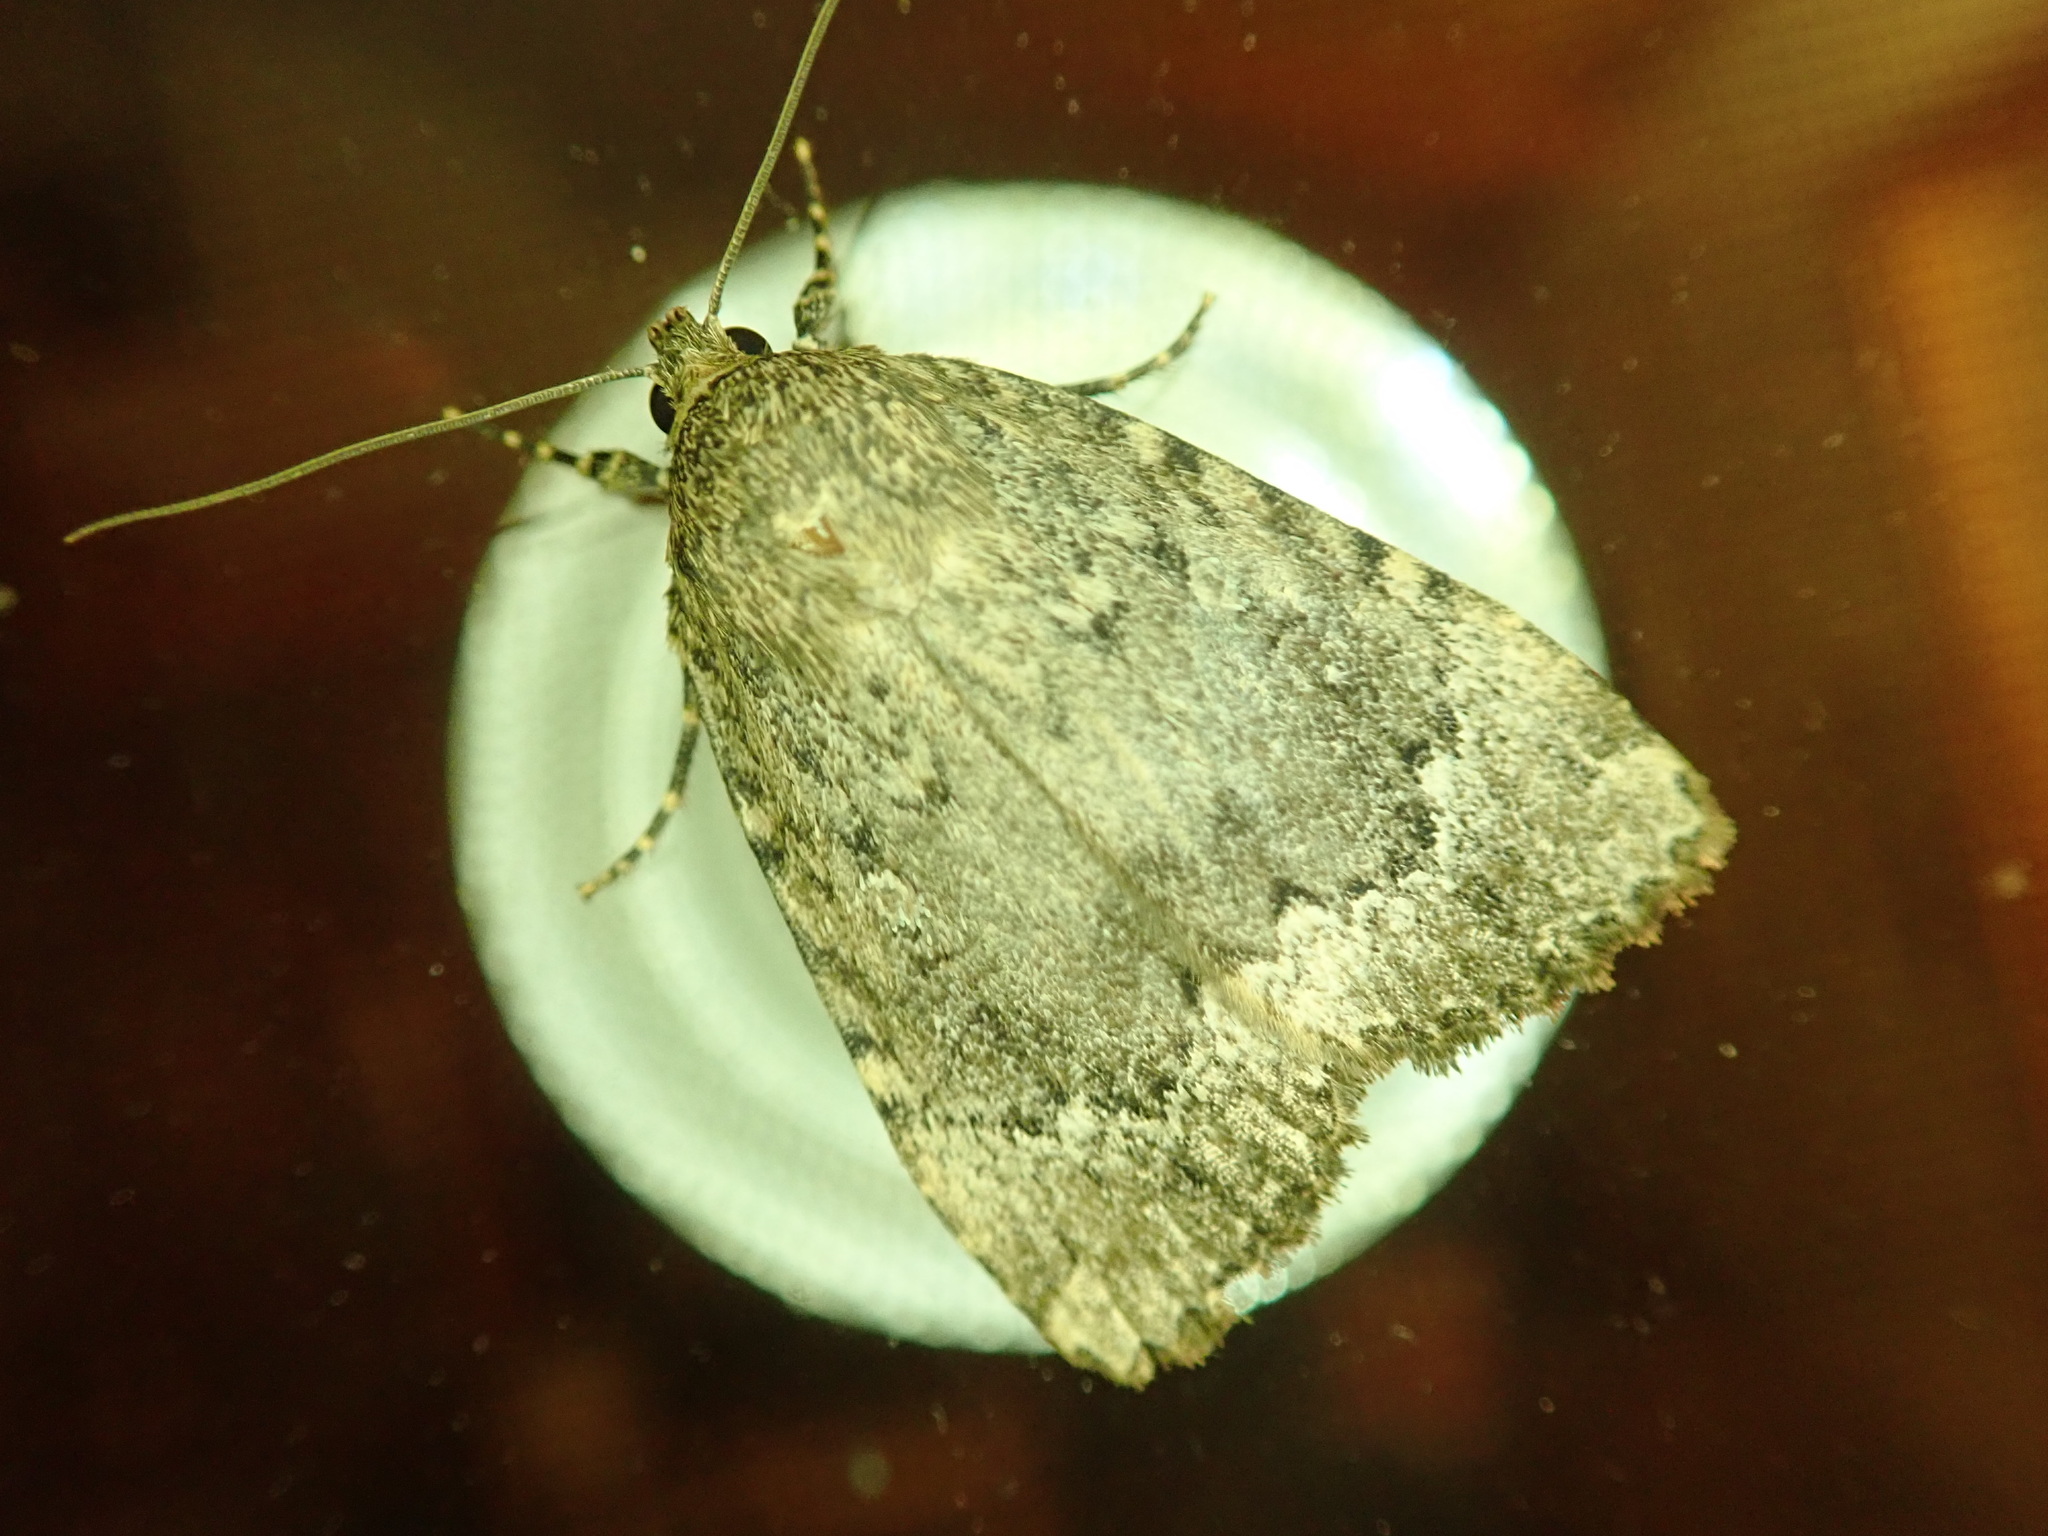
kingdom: Animalia
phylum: Arthropoda
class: Insecta
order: Lepidoptera
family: Noctuidae
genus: Amphipyra
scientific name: Amphipyra pyramidoides
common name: American copper underwing
